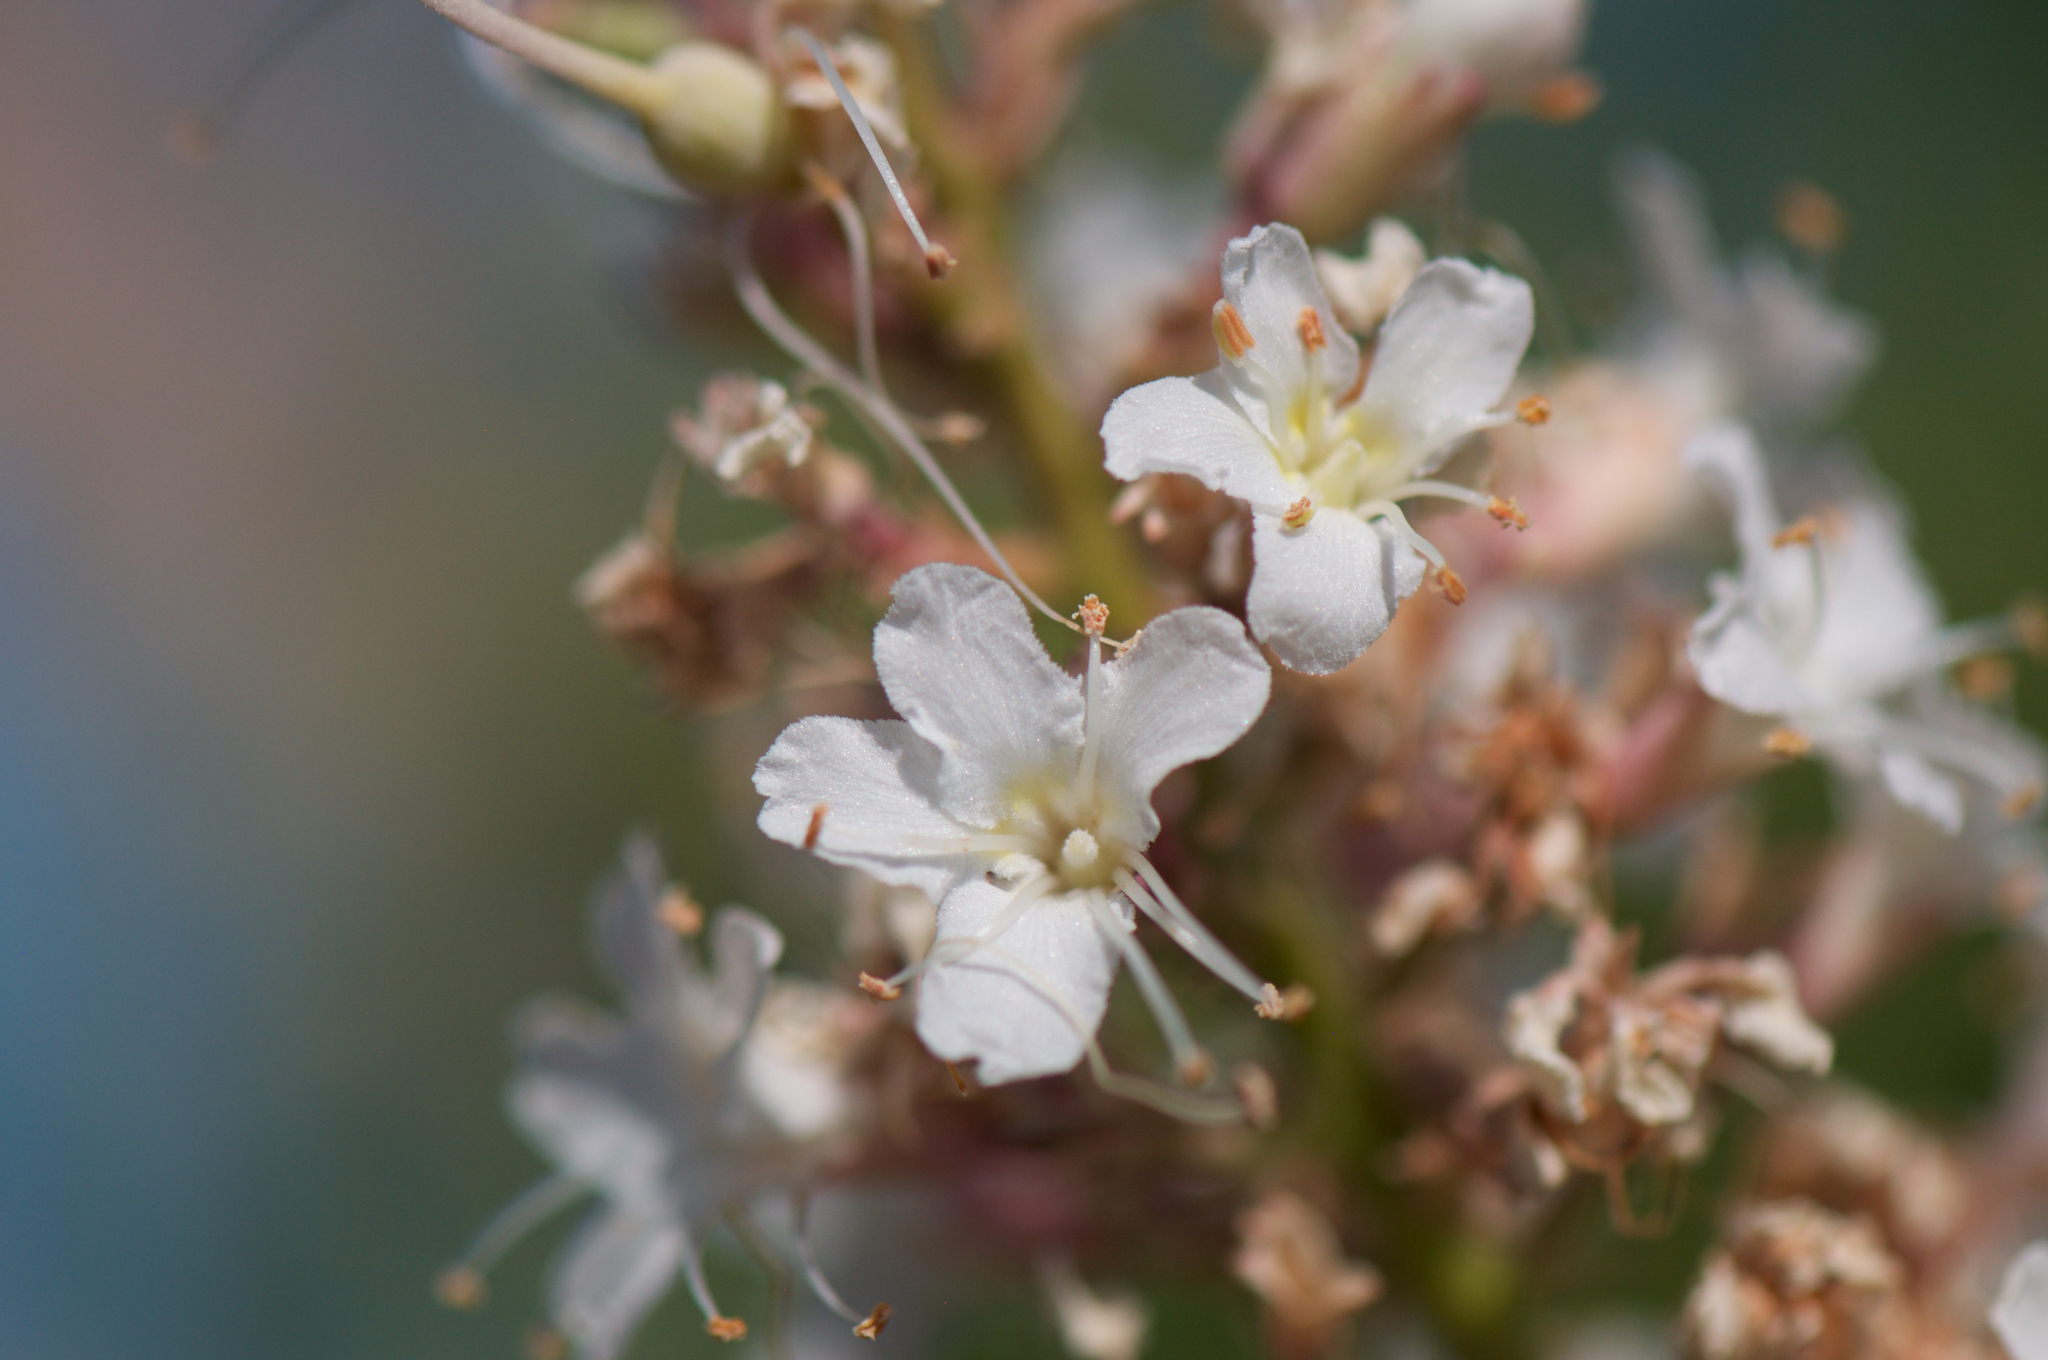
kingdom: Plantae
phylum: Tracheophyta
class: Magnoliopsida
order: Sapindales
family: Sapindaceae
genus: Aesculus
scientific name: Aesculus californica
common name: California buckeye
